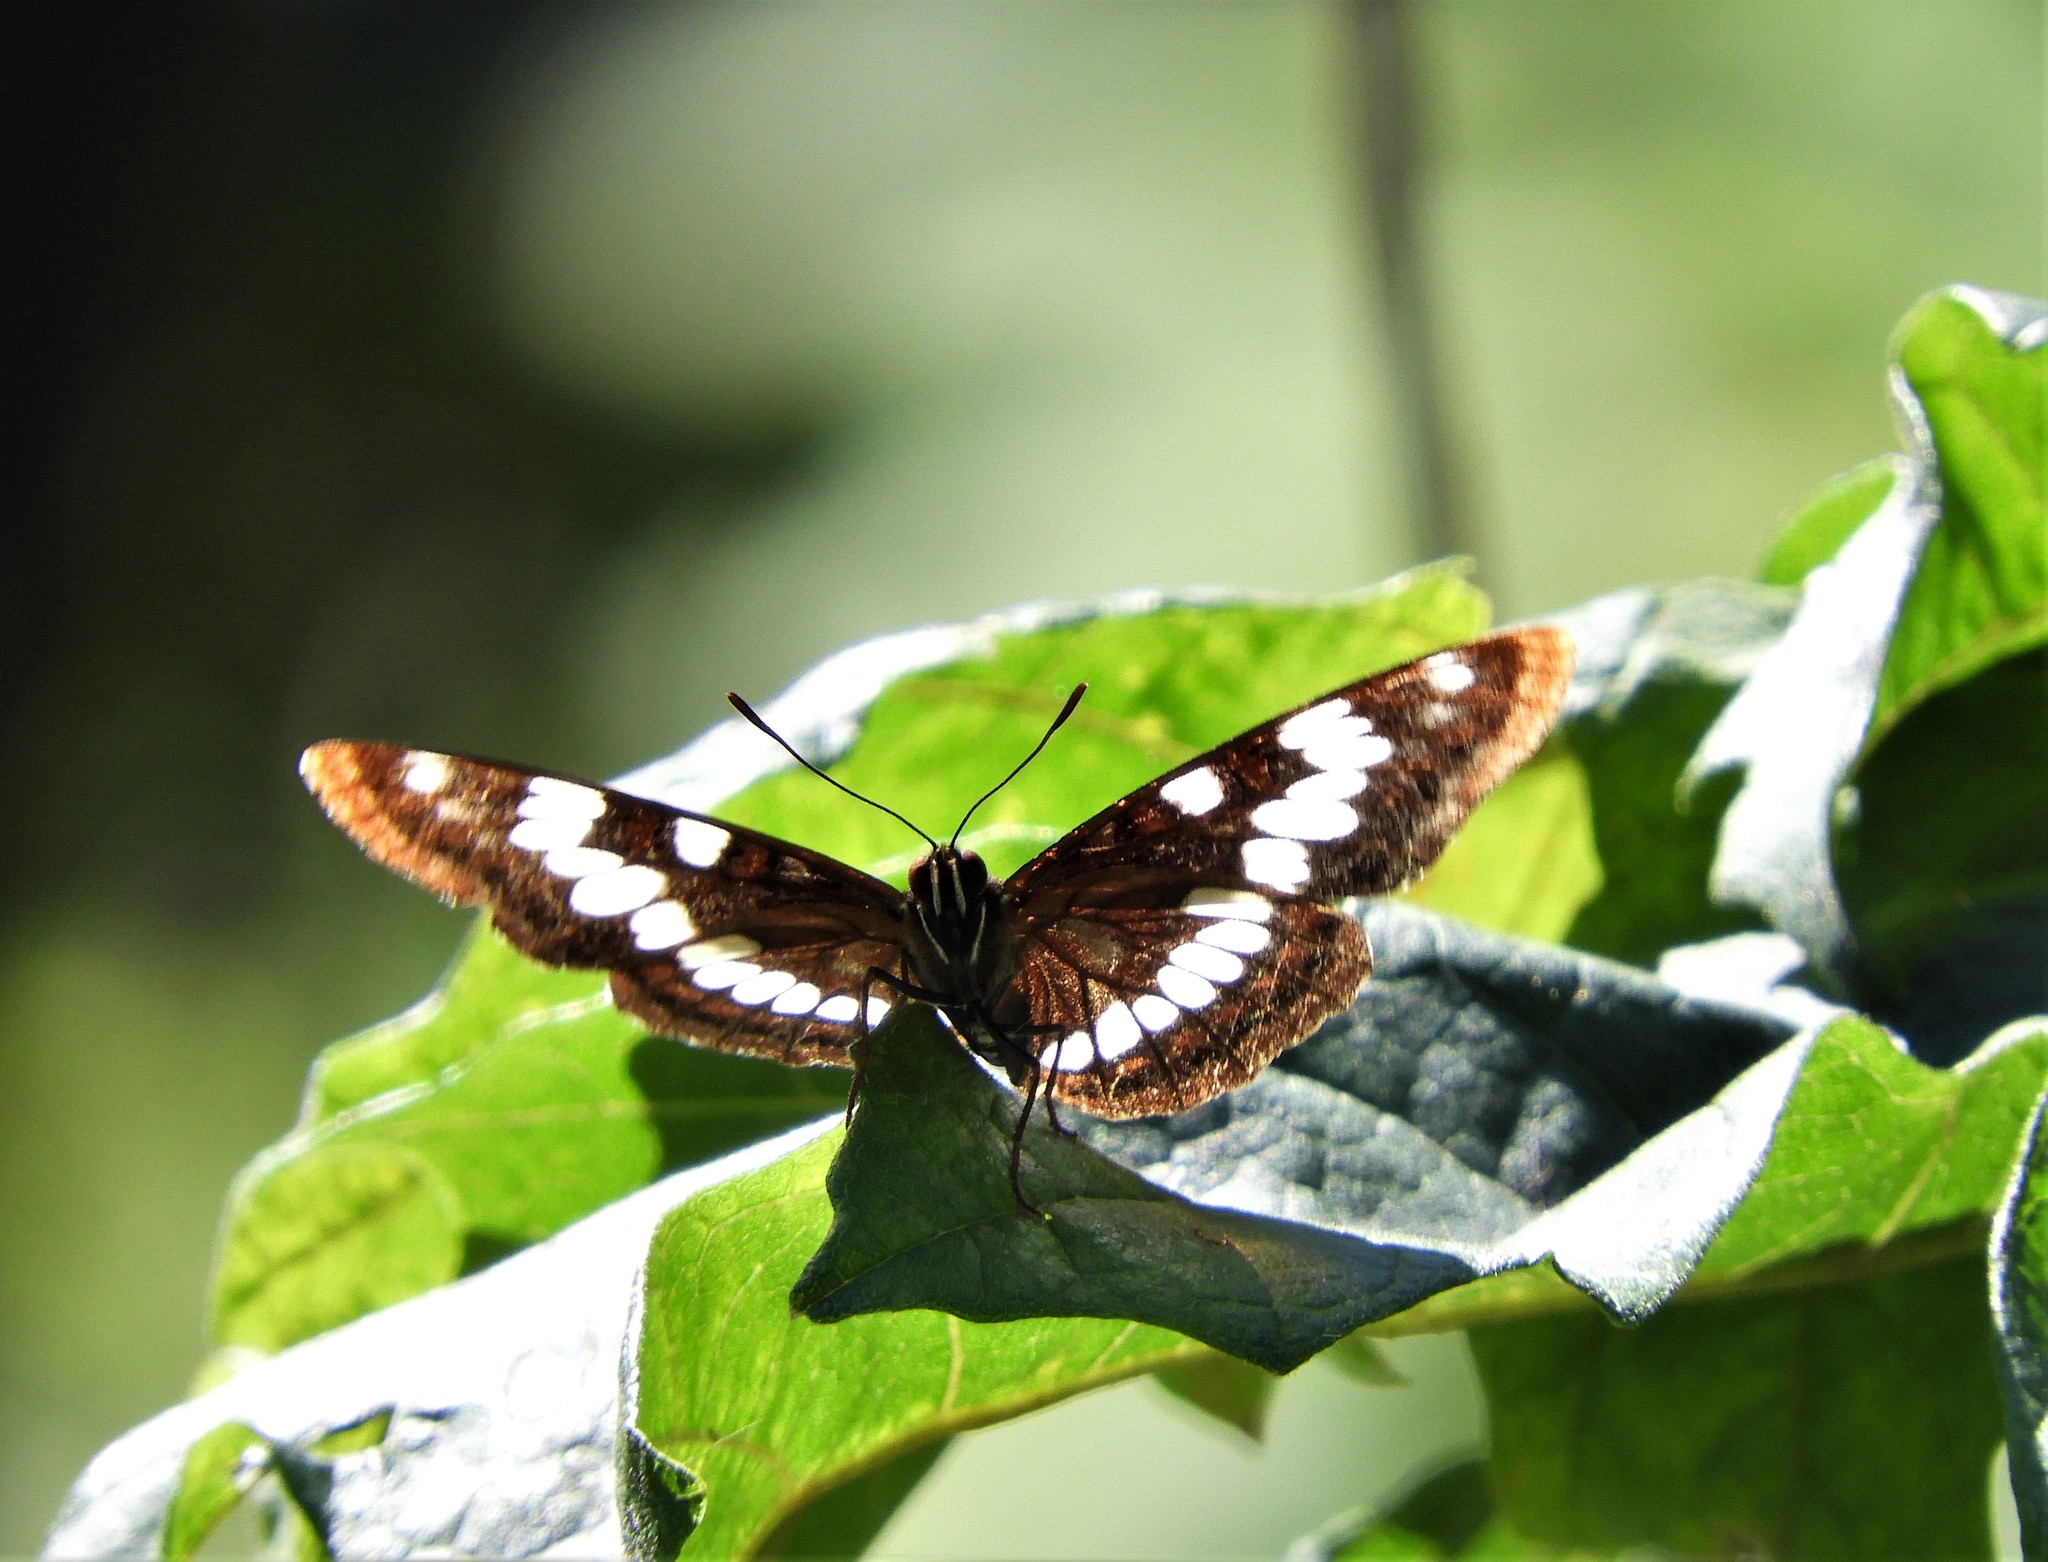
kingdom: Animalia
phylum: Arthropoda
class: Insecta
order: Lepidoptera
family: Nymphalidae
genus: Limenitis
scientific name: Limenitis lorquini
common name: Lorquin's admiral
